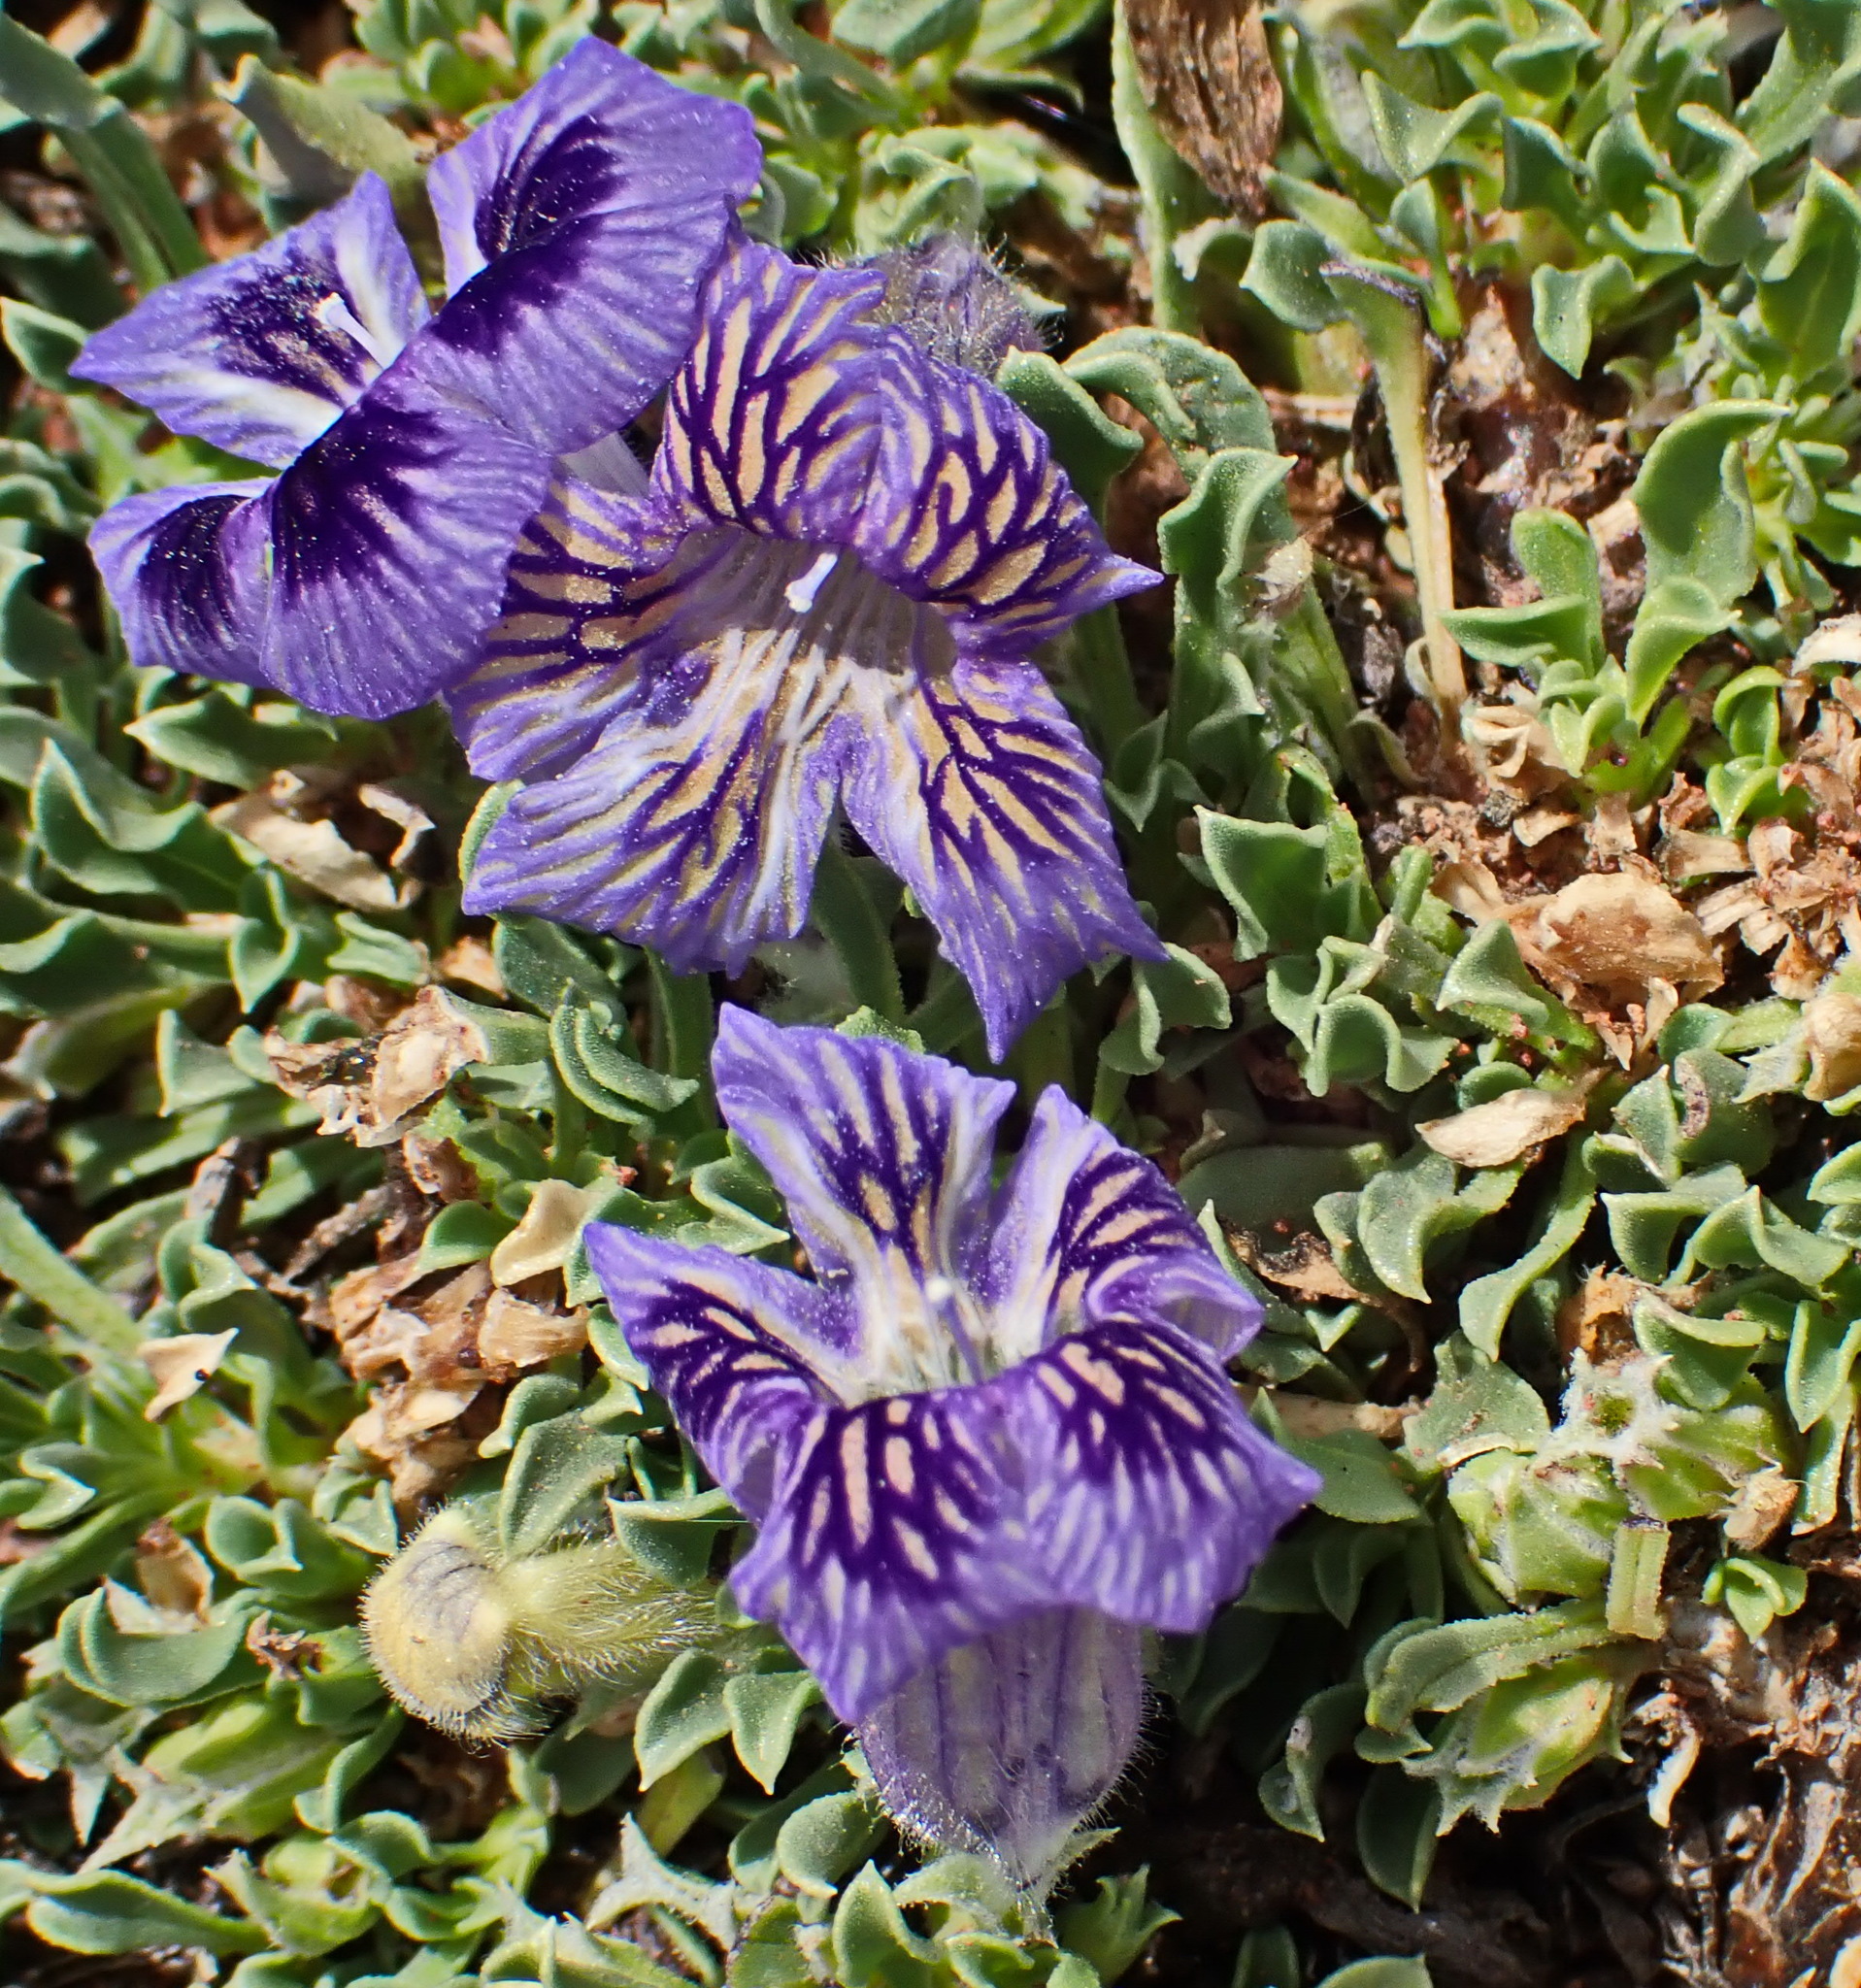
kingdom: Plantae
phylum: Tracheophyta
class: Magnoliopsida
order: Lamiales
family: Scrophulariaceae
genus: Aptosimum
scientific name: Aptosimum indivisum
